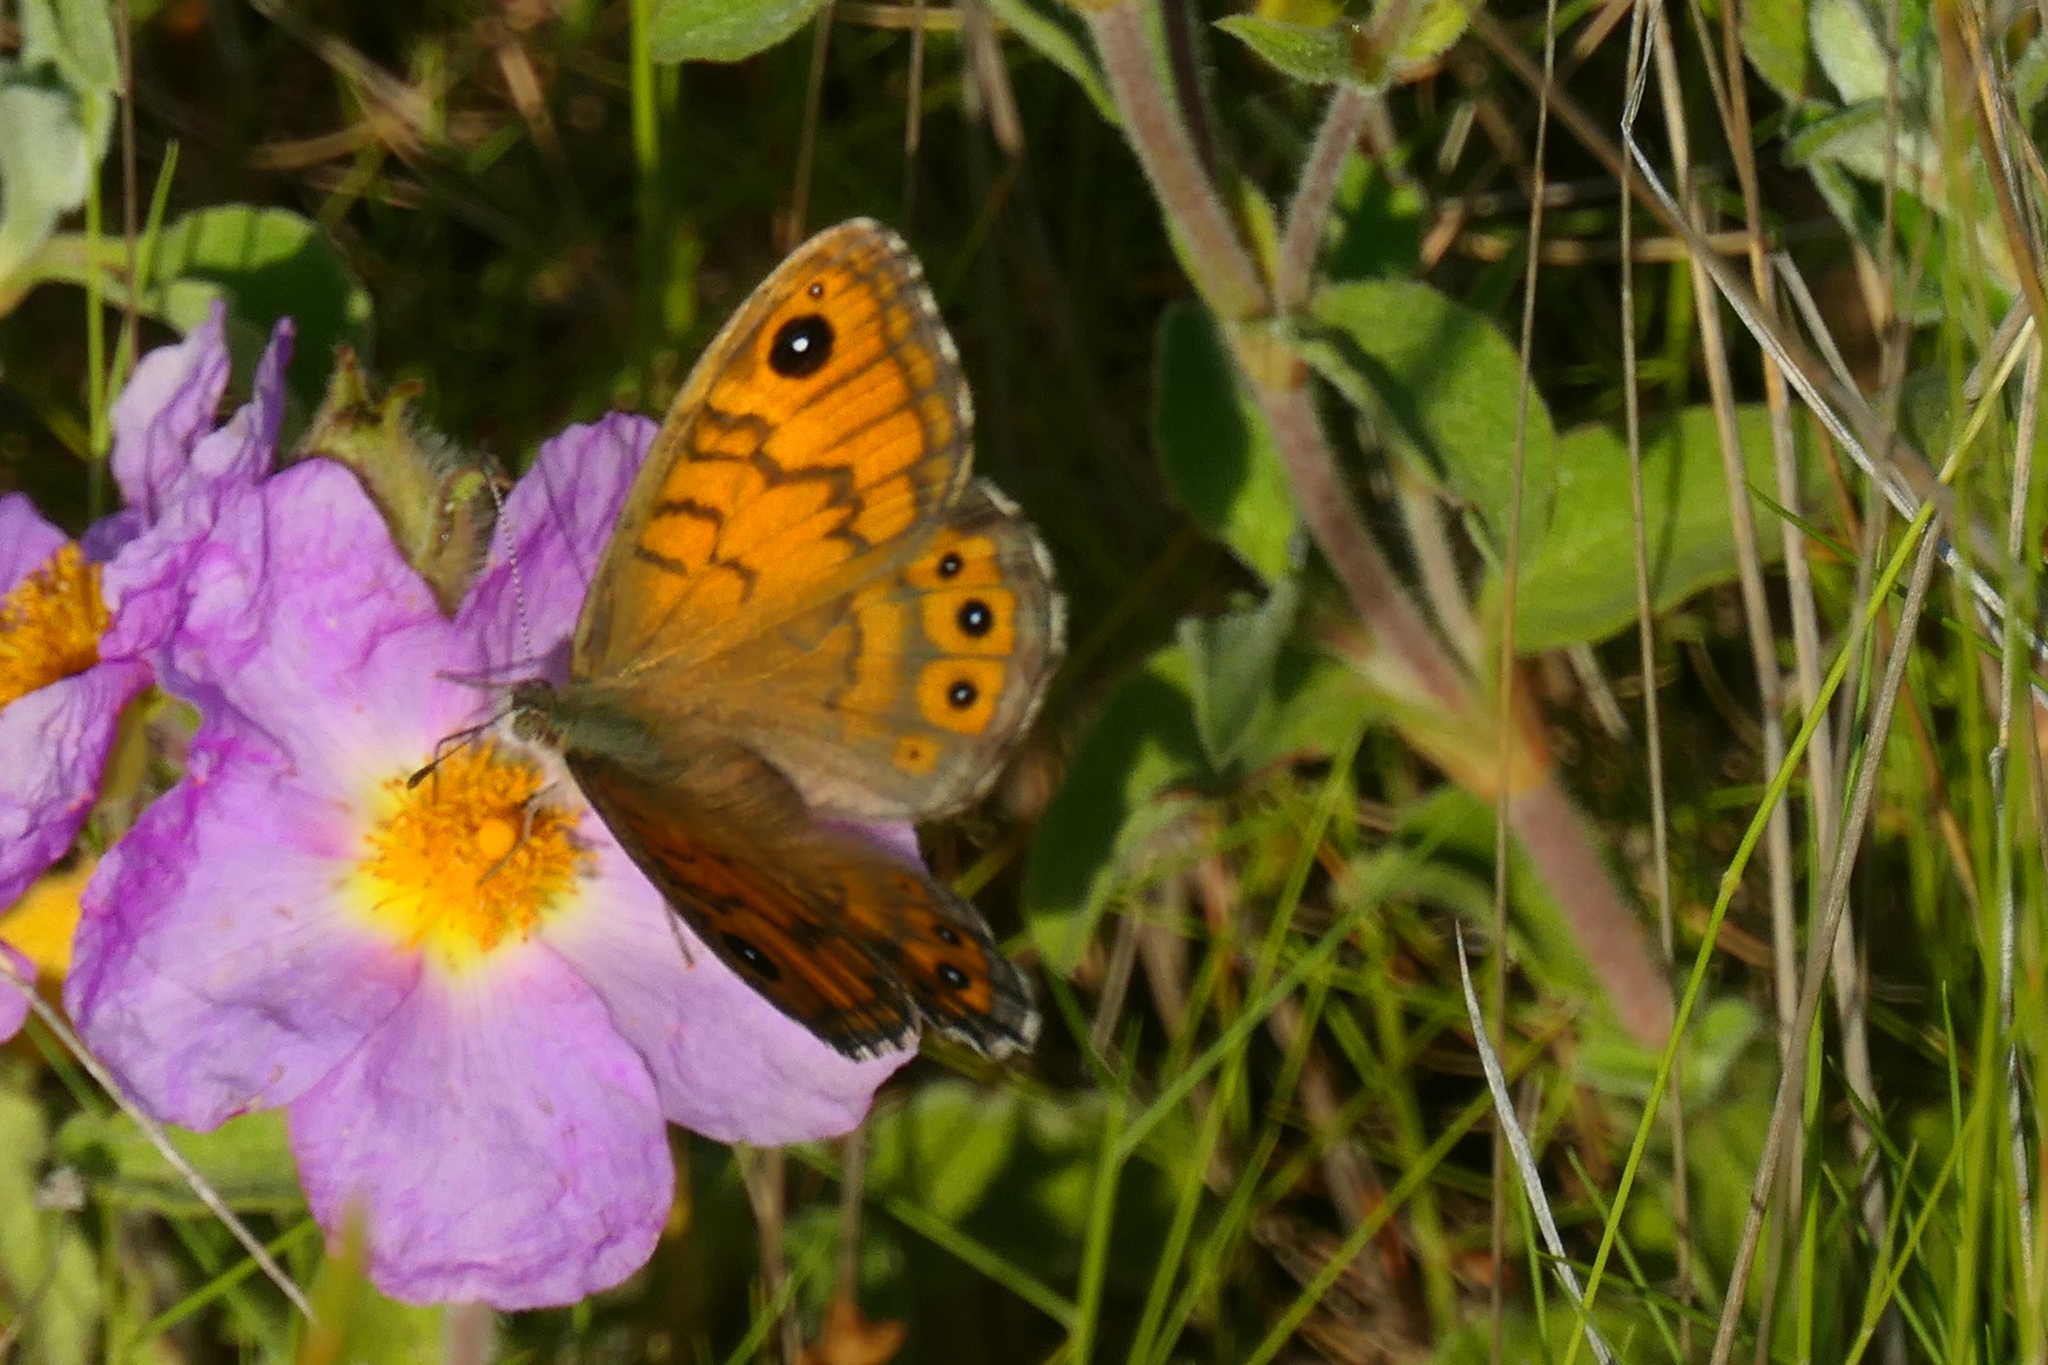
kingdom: Animalia
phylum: Arthropoda
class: Insecta
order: Lepidoptera
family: Nymphalidae
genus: Pararge
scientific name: Pararge Lasiommata megera
